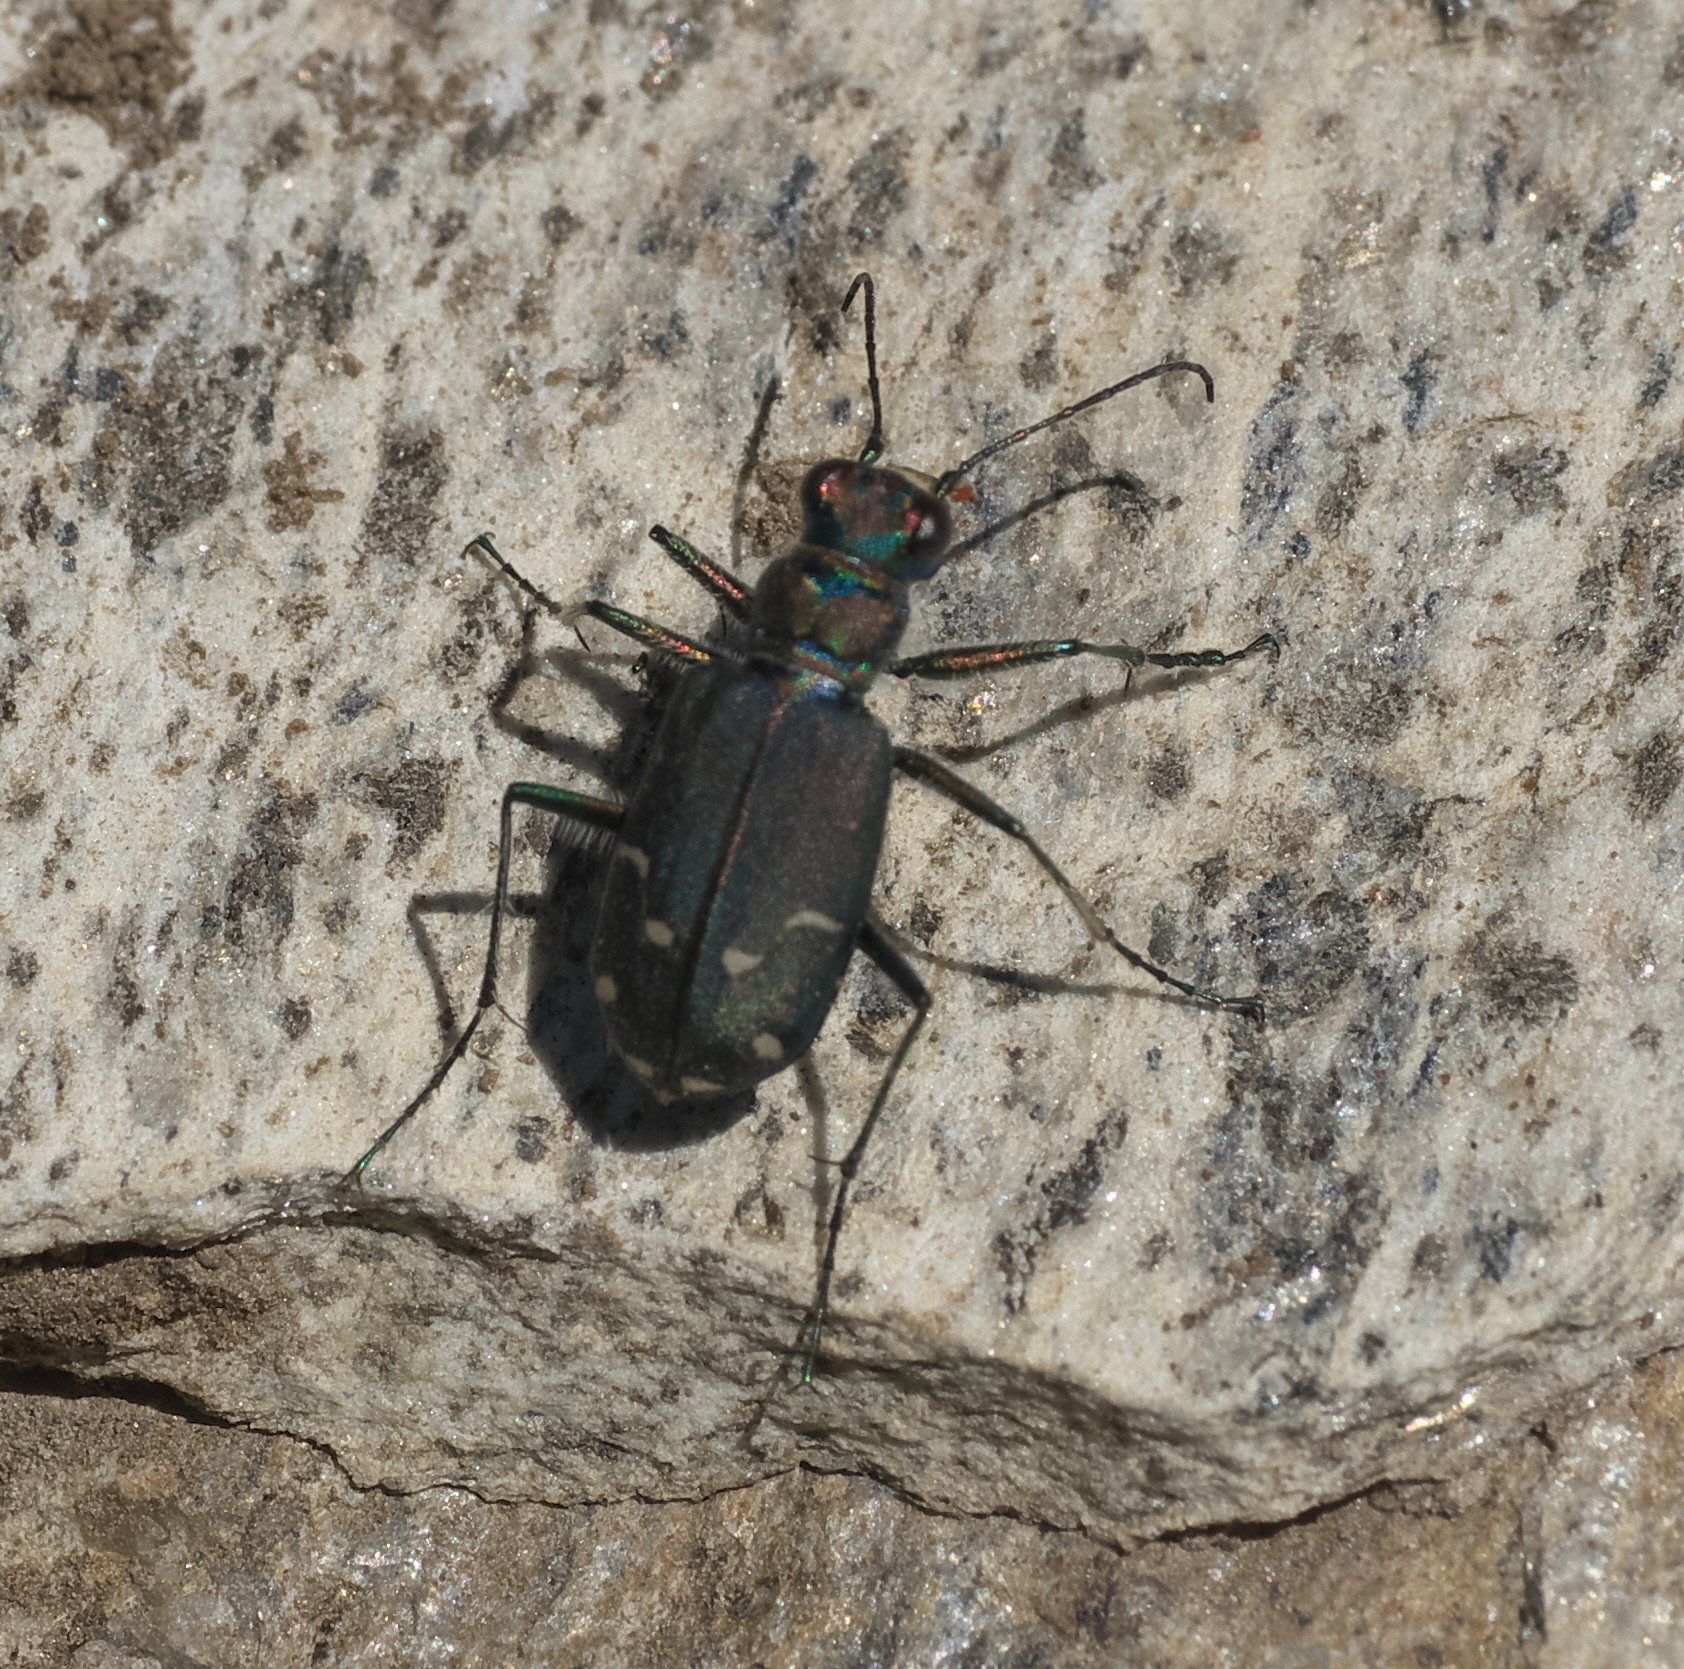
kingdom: Animalia
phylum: Arthropoda
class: Insecta
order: Coleoptera
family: Carabidae
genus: Cicindela
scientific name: Cicindela depressula
